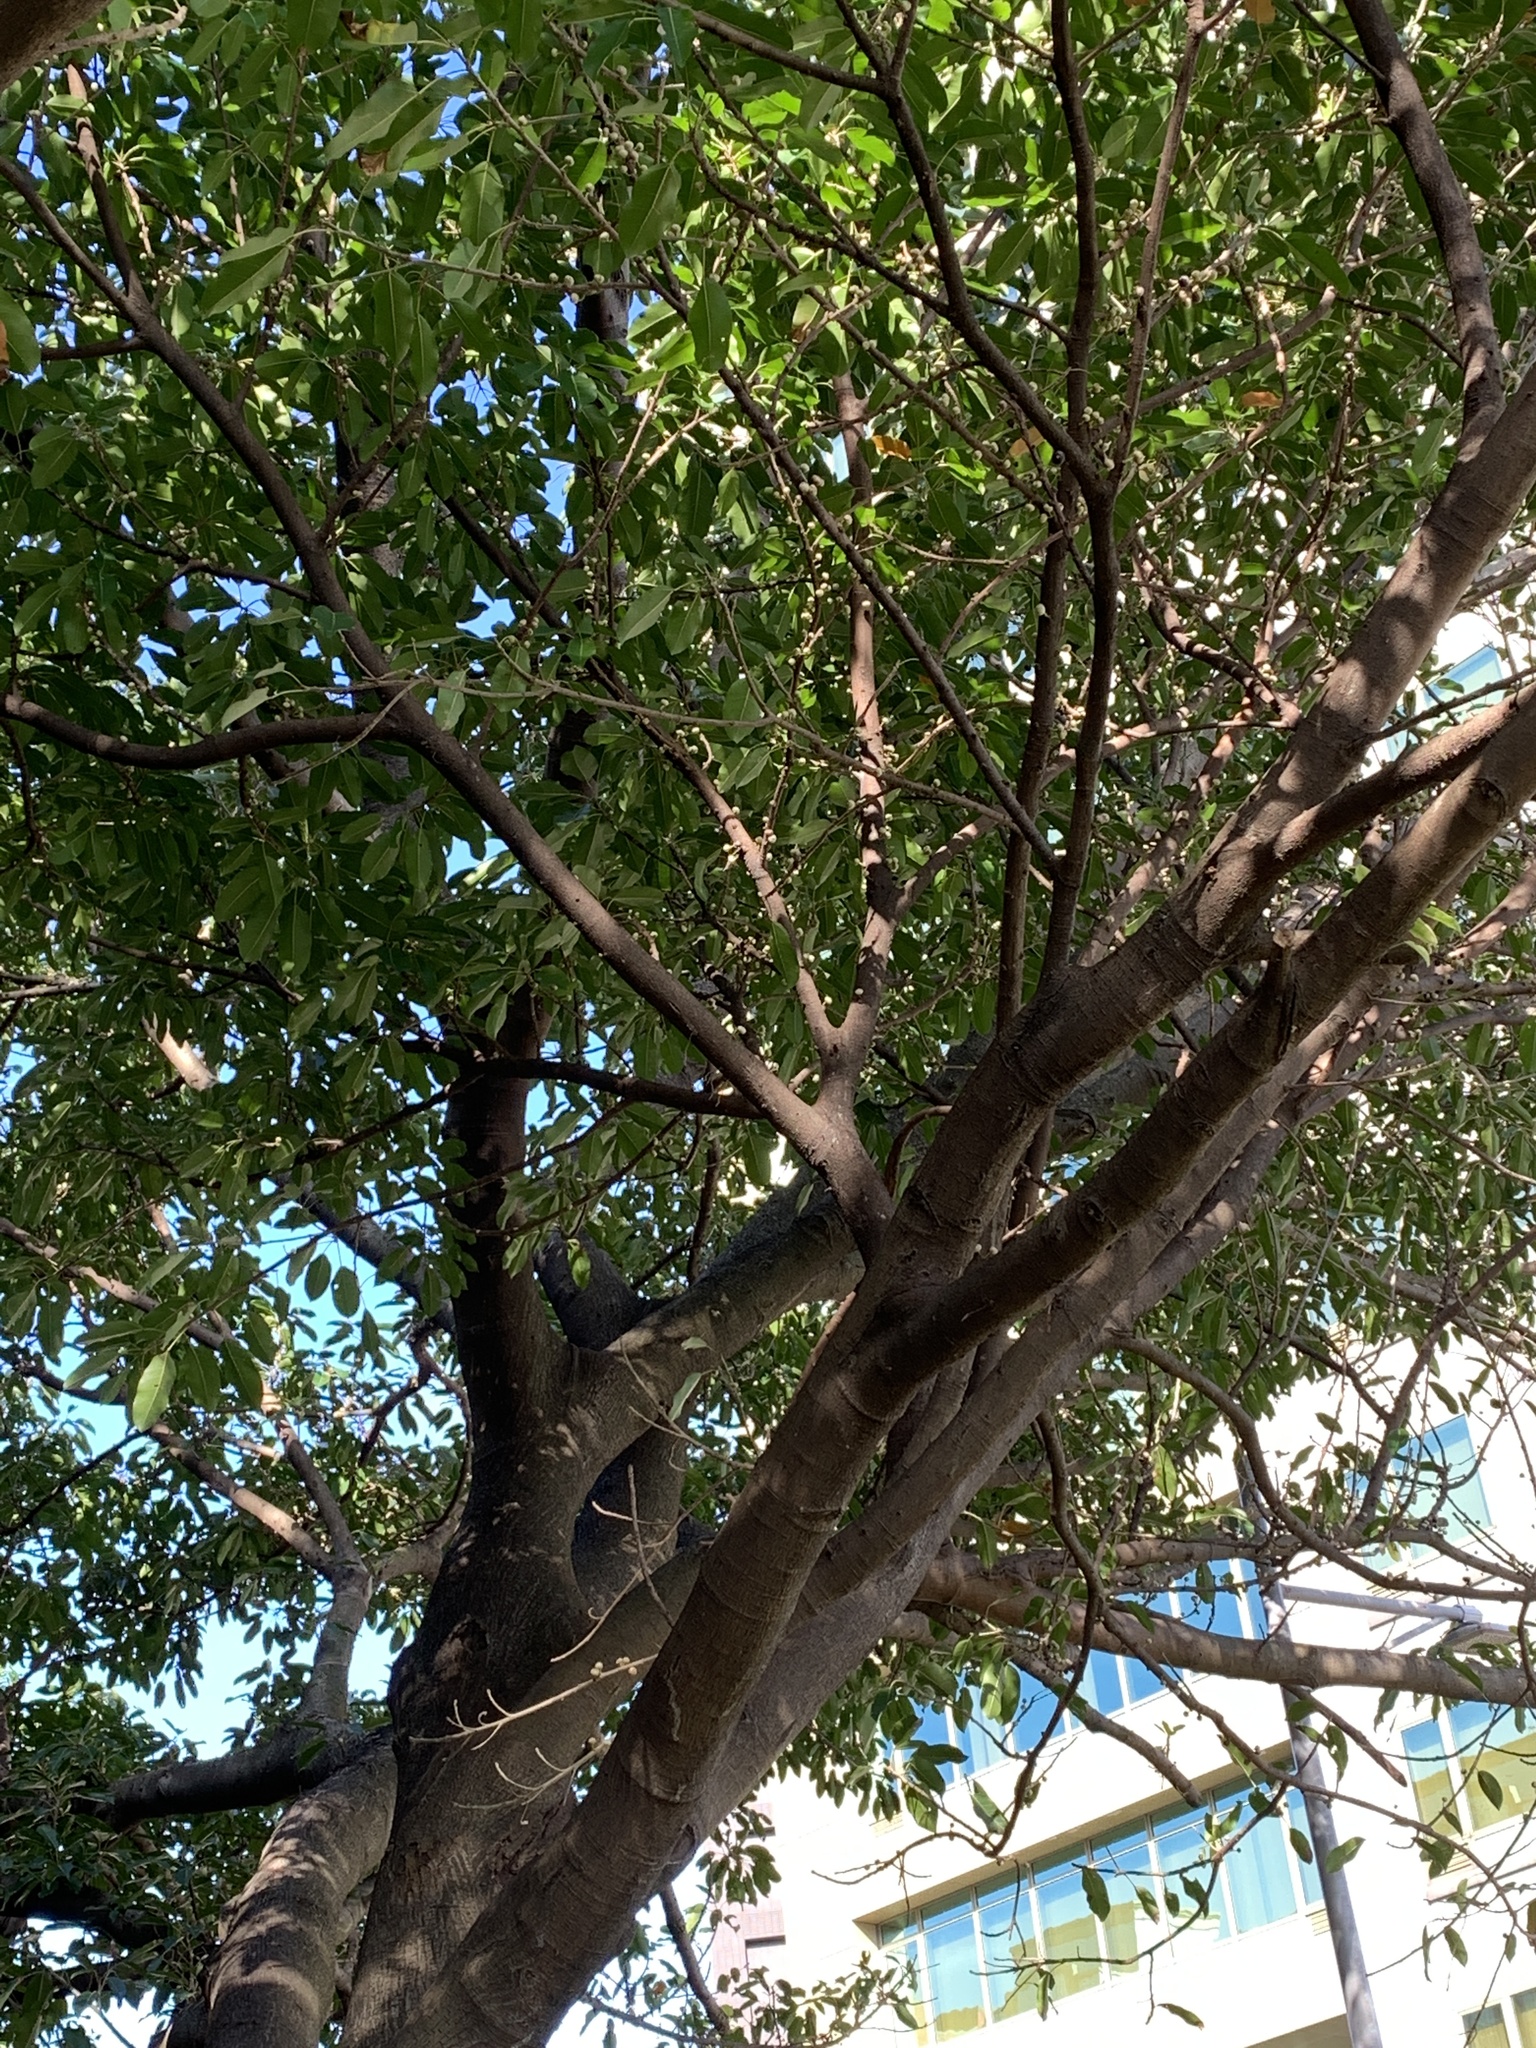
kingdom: Plantae
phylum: Tracheophyta
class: Magnoliopsida
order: Rosales
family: Moraceae
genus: Ficus
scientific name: Ficus subpisocarpa
